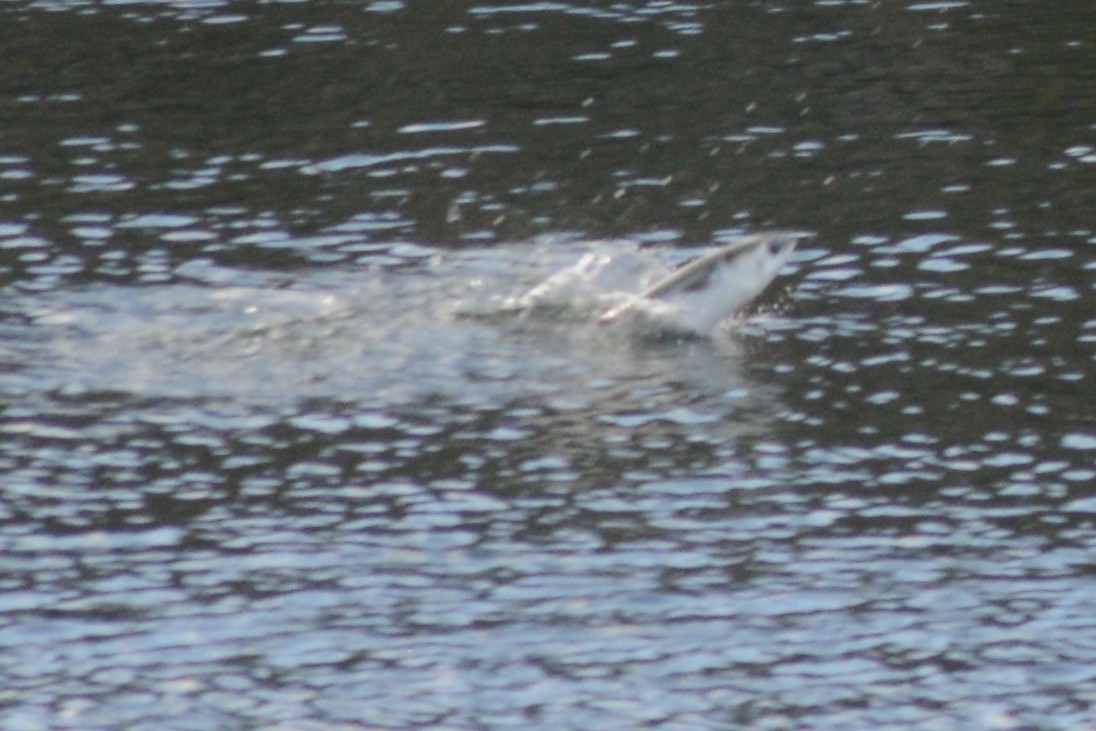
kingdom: Animalia
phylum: Chordata
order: Mugiliformes
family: Mugilidae
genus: Mugil
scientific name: Mugil cephalus
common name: Grey mullet
